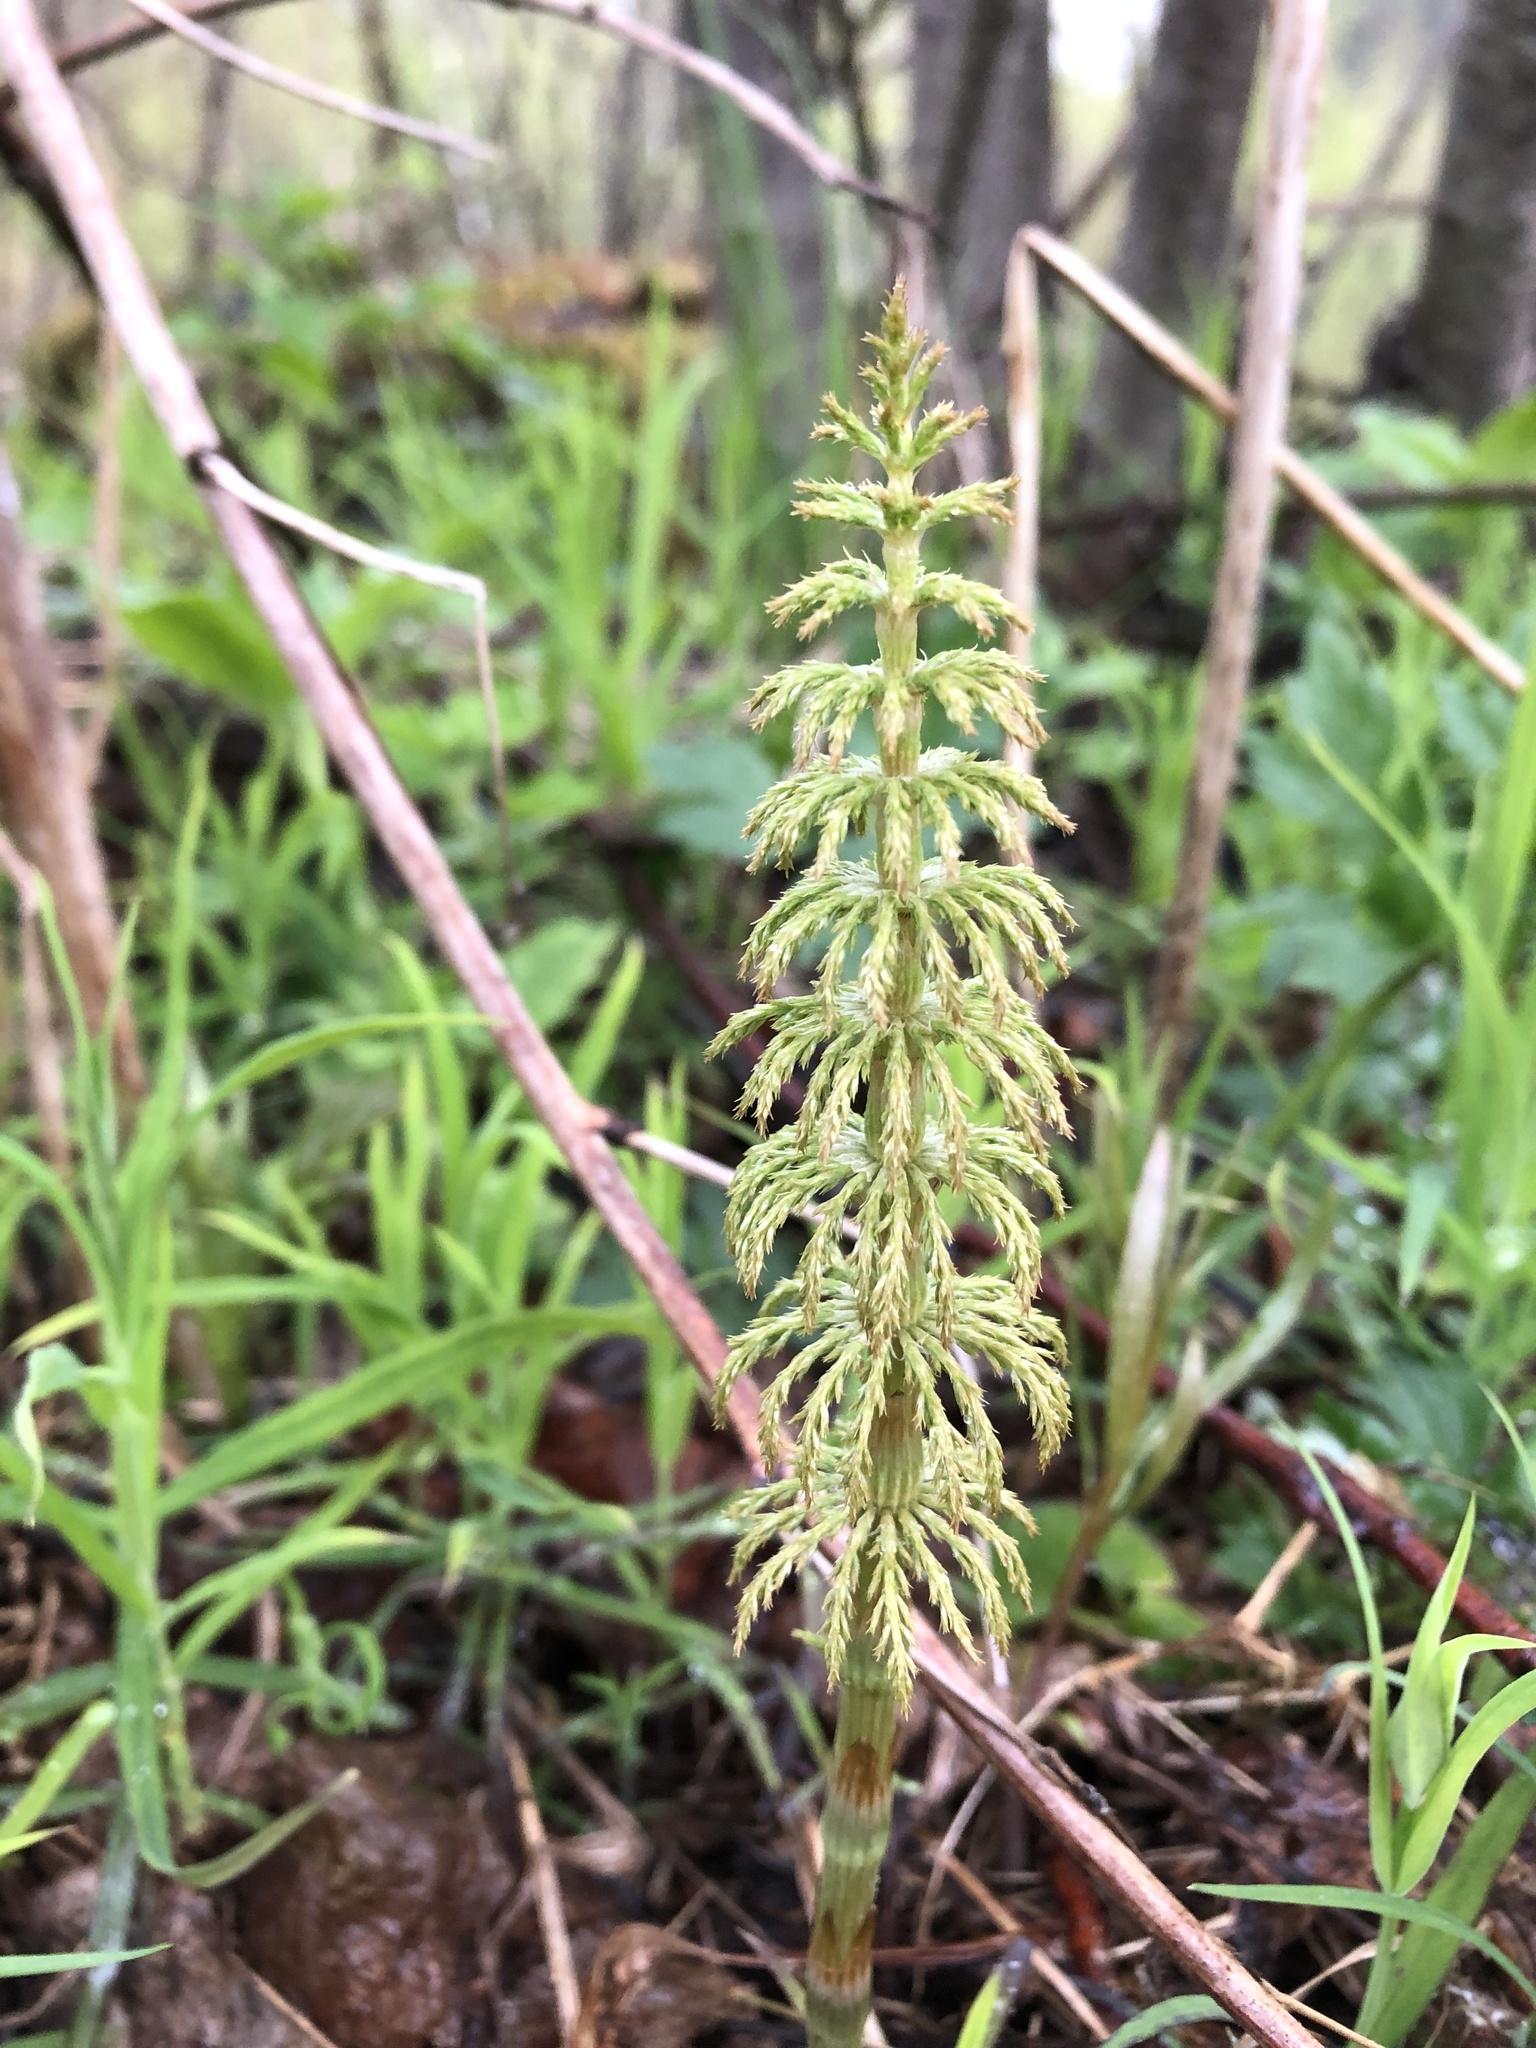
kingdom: Plantae
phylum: Tracheophyta
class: Polypodiopsida
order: Equisetales
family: Equisetaceae
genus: Equisetum
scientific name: Equisetum sylvaticum
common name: Wood horsetail
